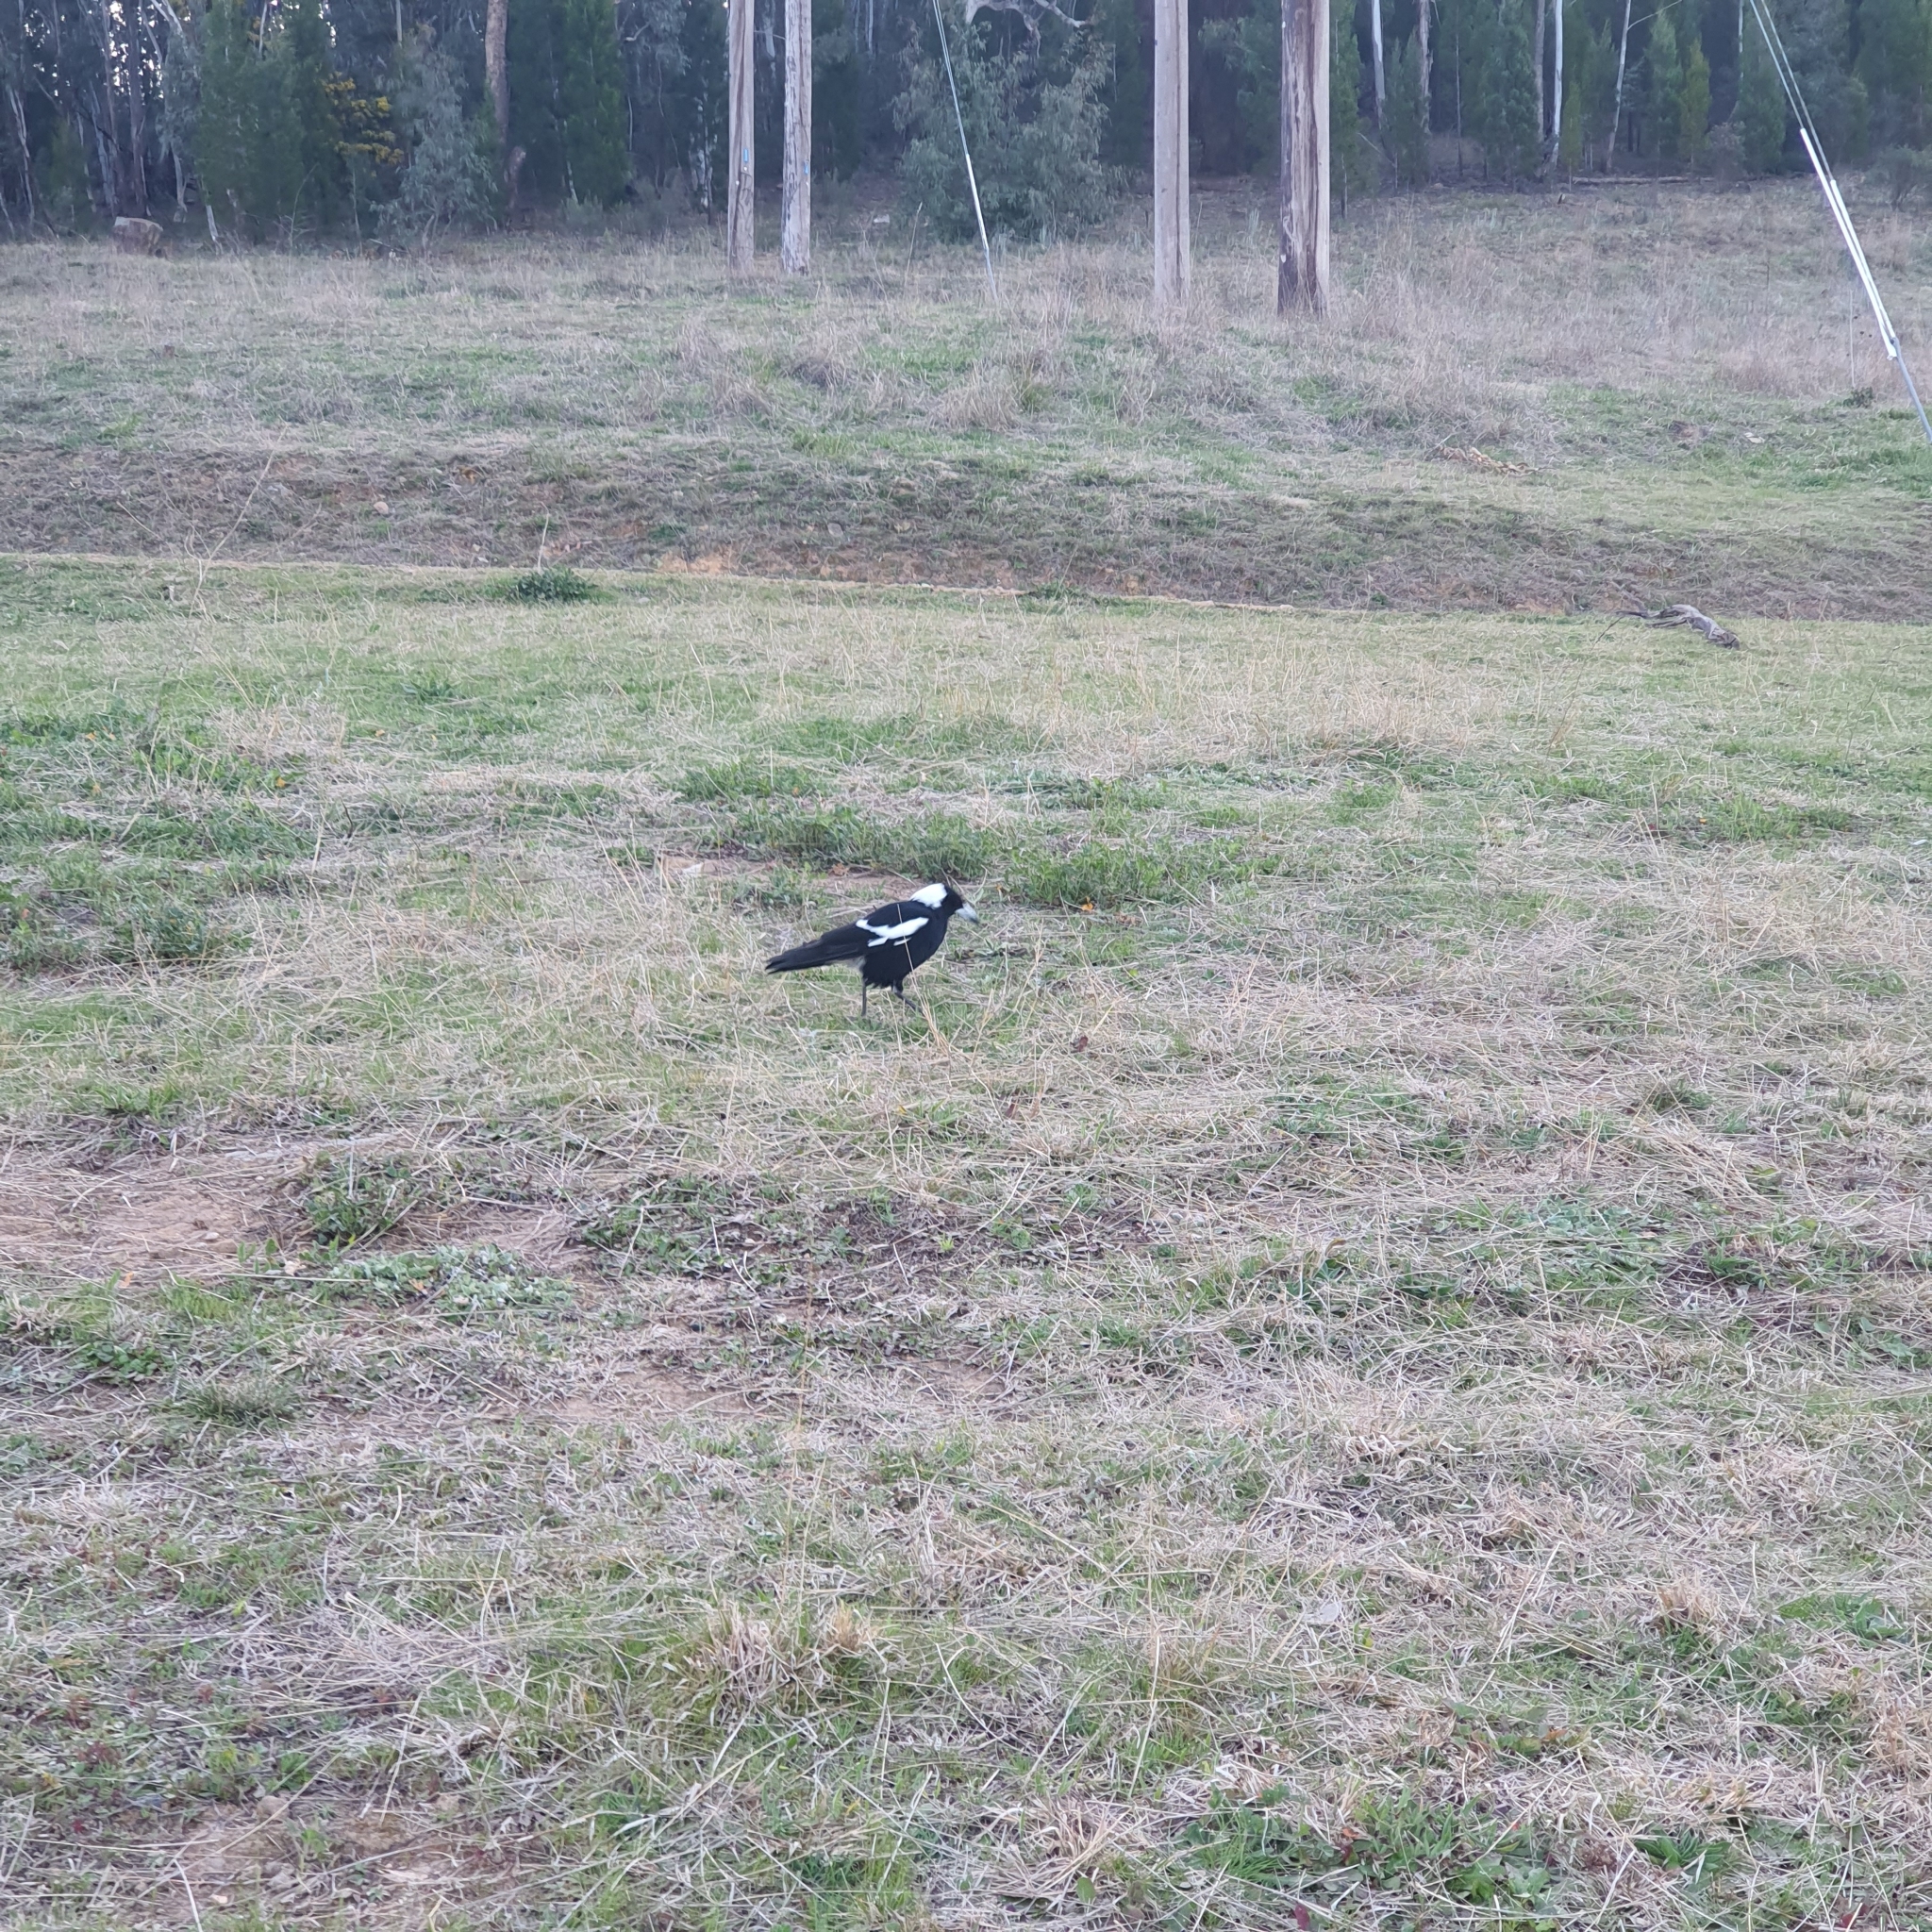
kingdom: Animalia
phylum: Chordata
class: Aves
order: Passeriformes
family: Cracticidae
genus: Gymnorhina
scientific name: Gymnorhina tibicen
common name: Australian magpie
